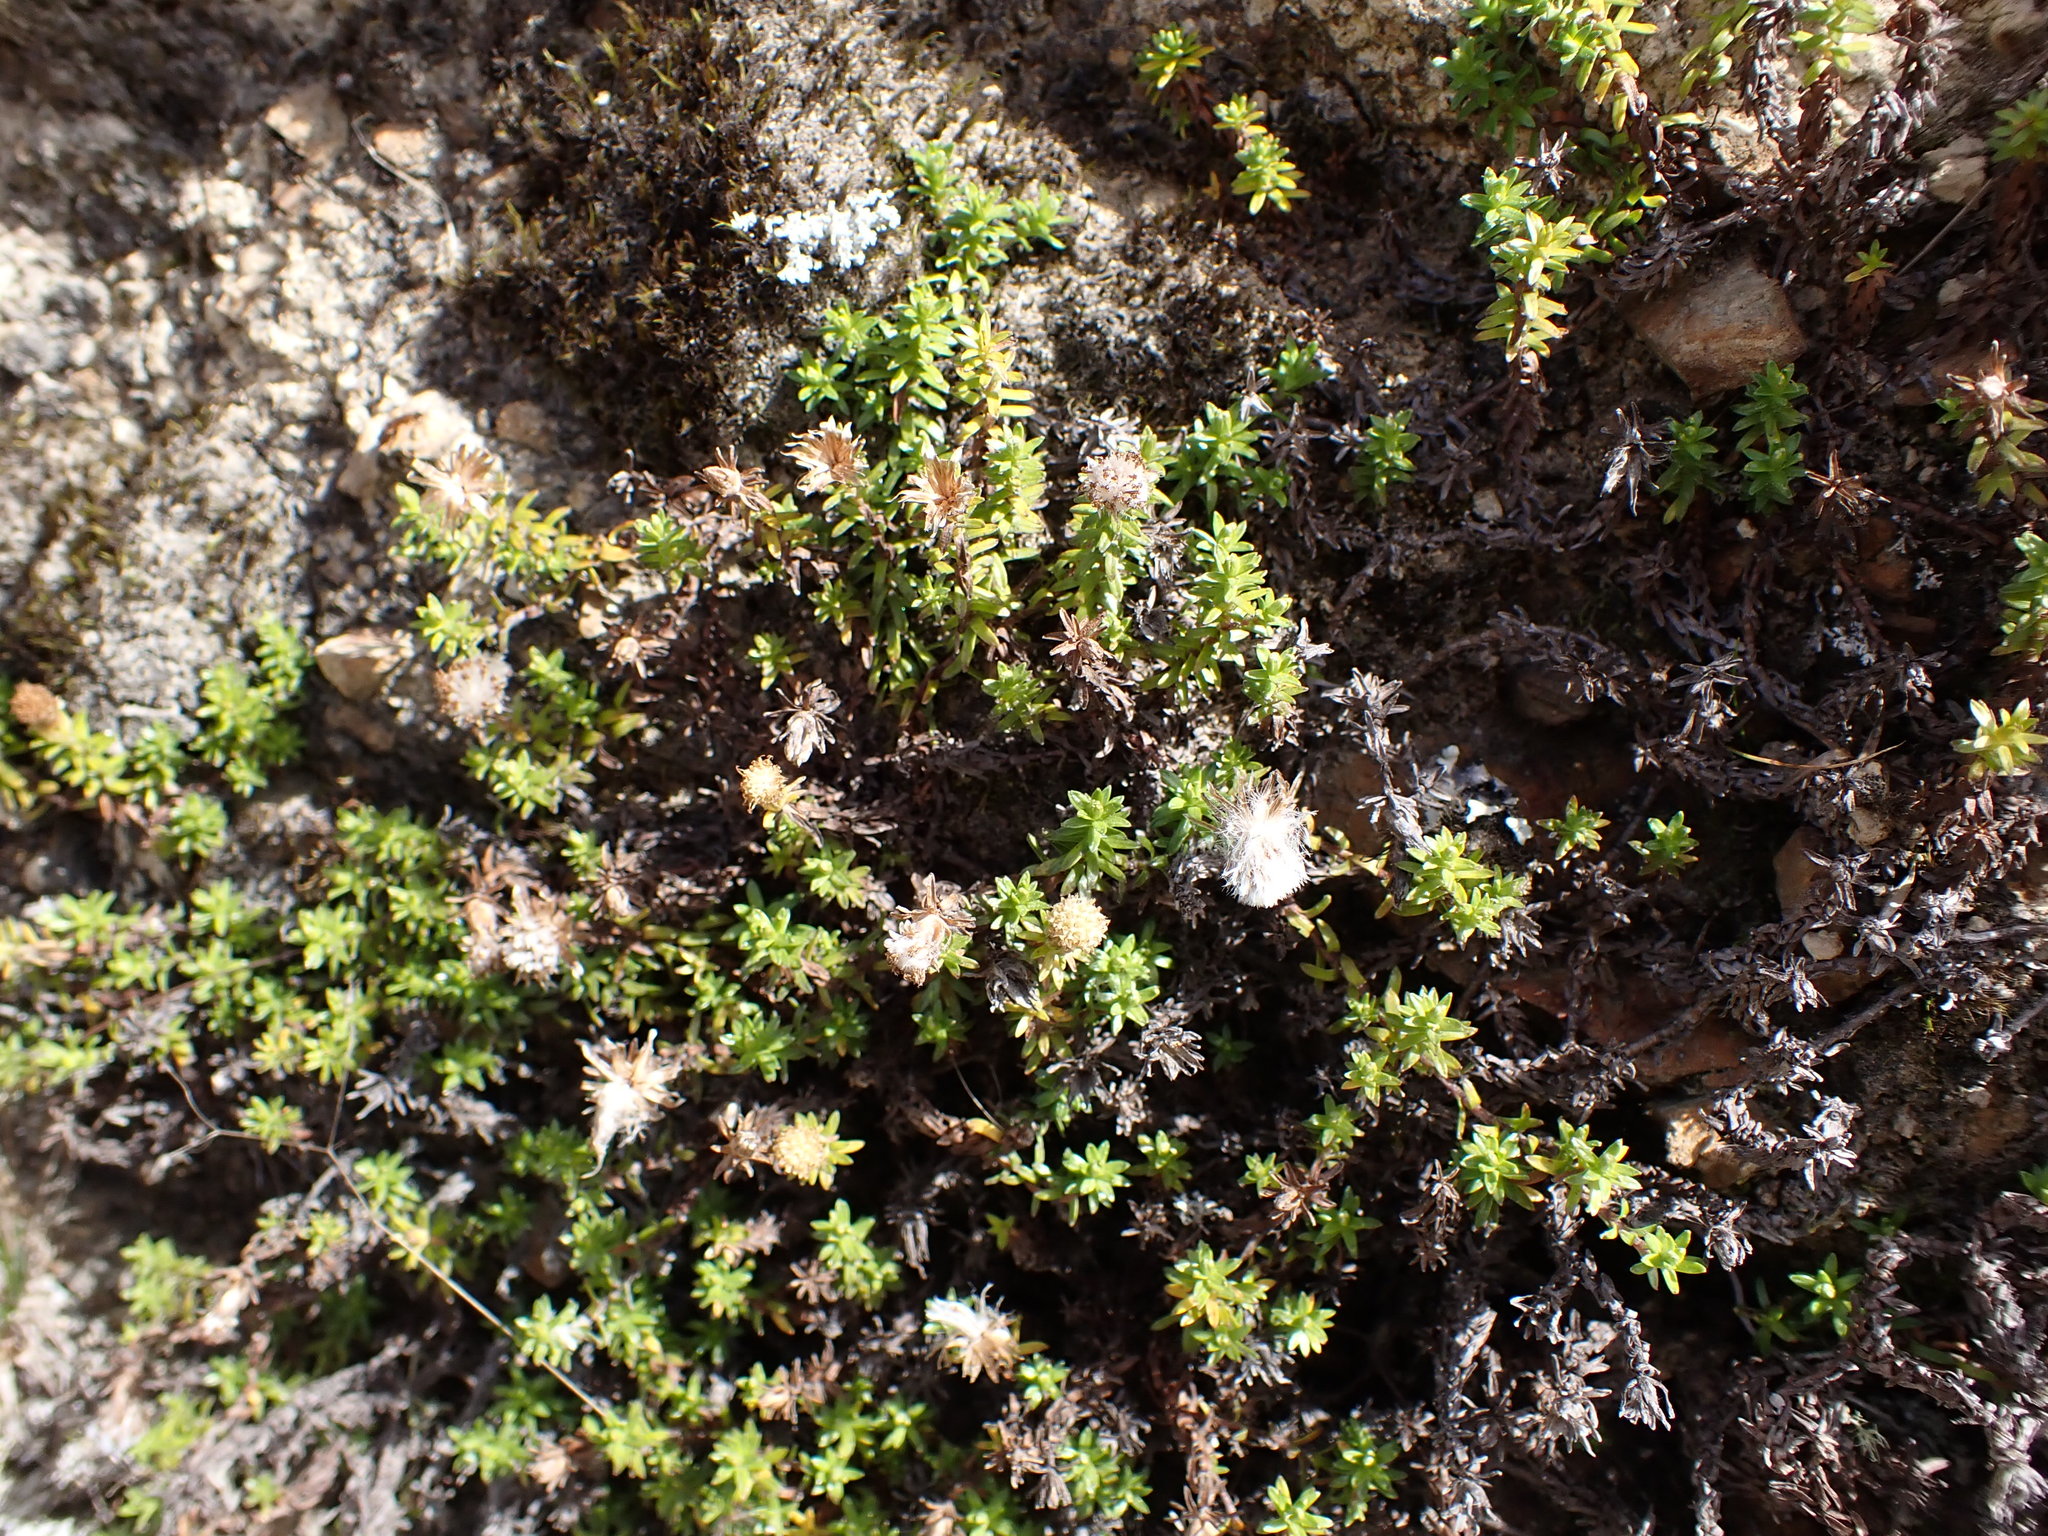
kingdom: Plantae
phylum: Tracheophyta
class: Magnoliopsida
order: Asterales
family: Asteraceae
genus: Raoulia
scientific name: Raoulia glabra
